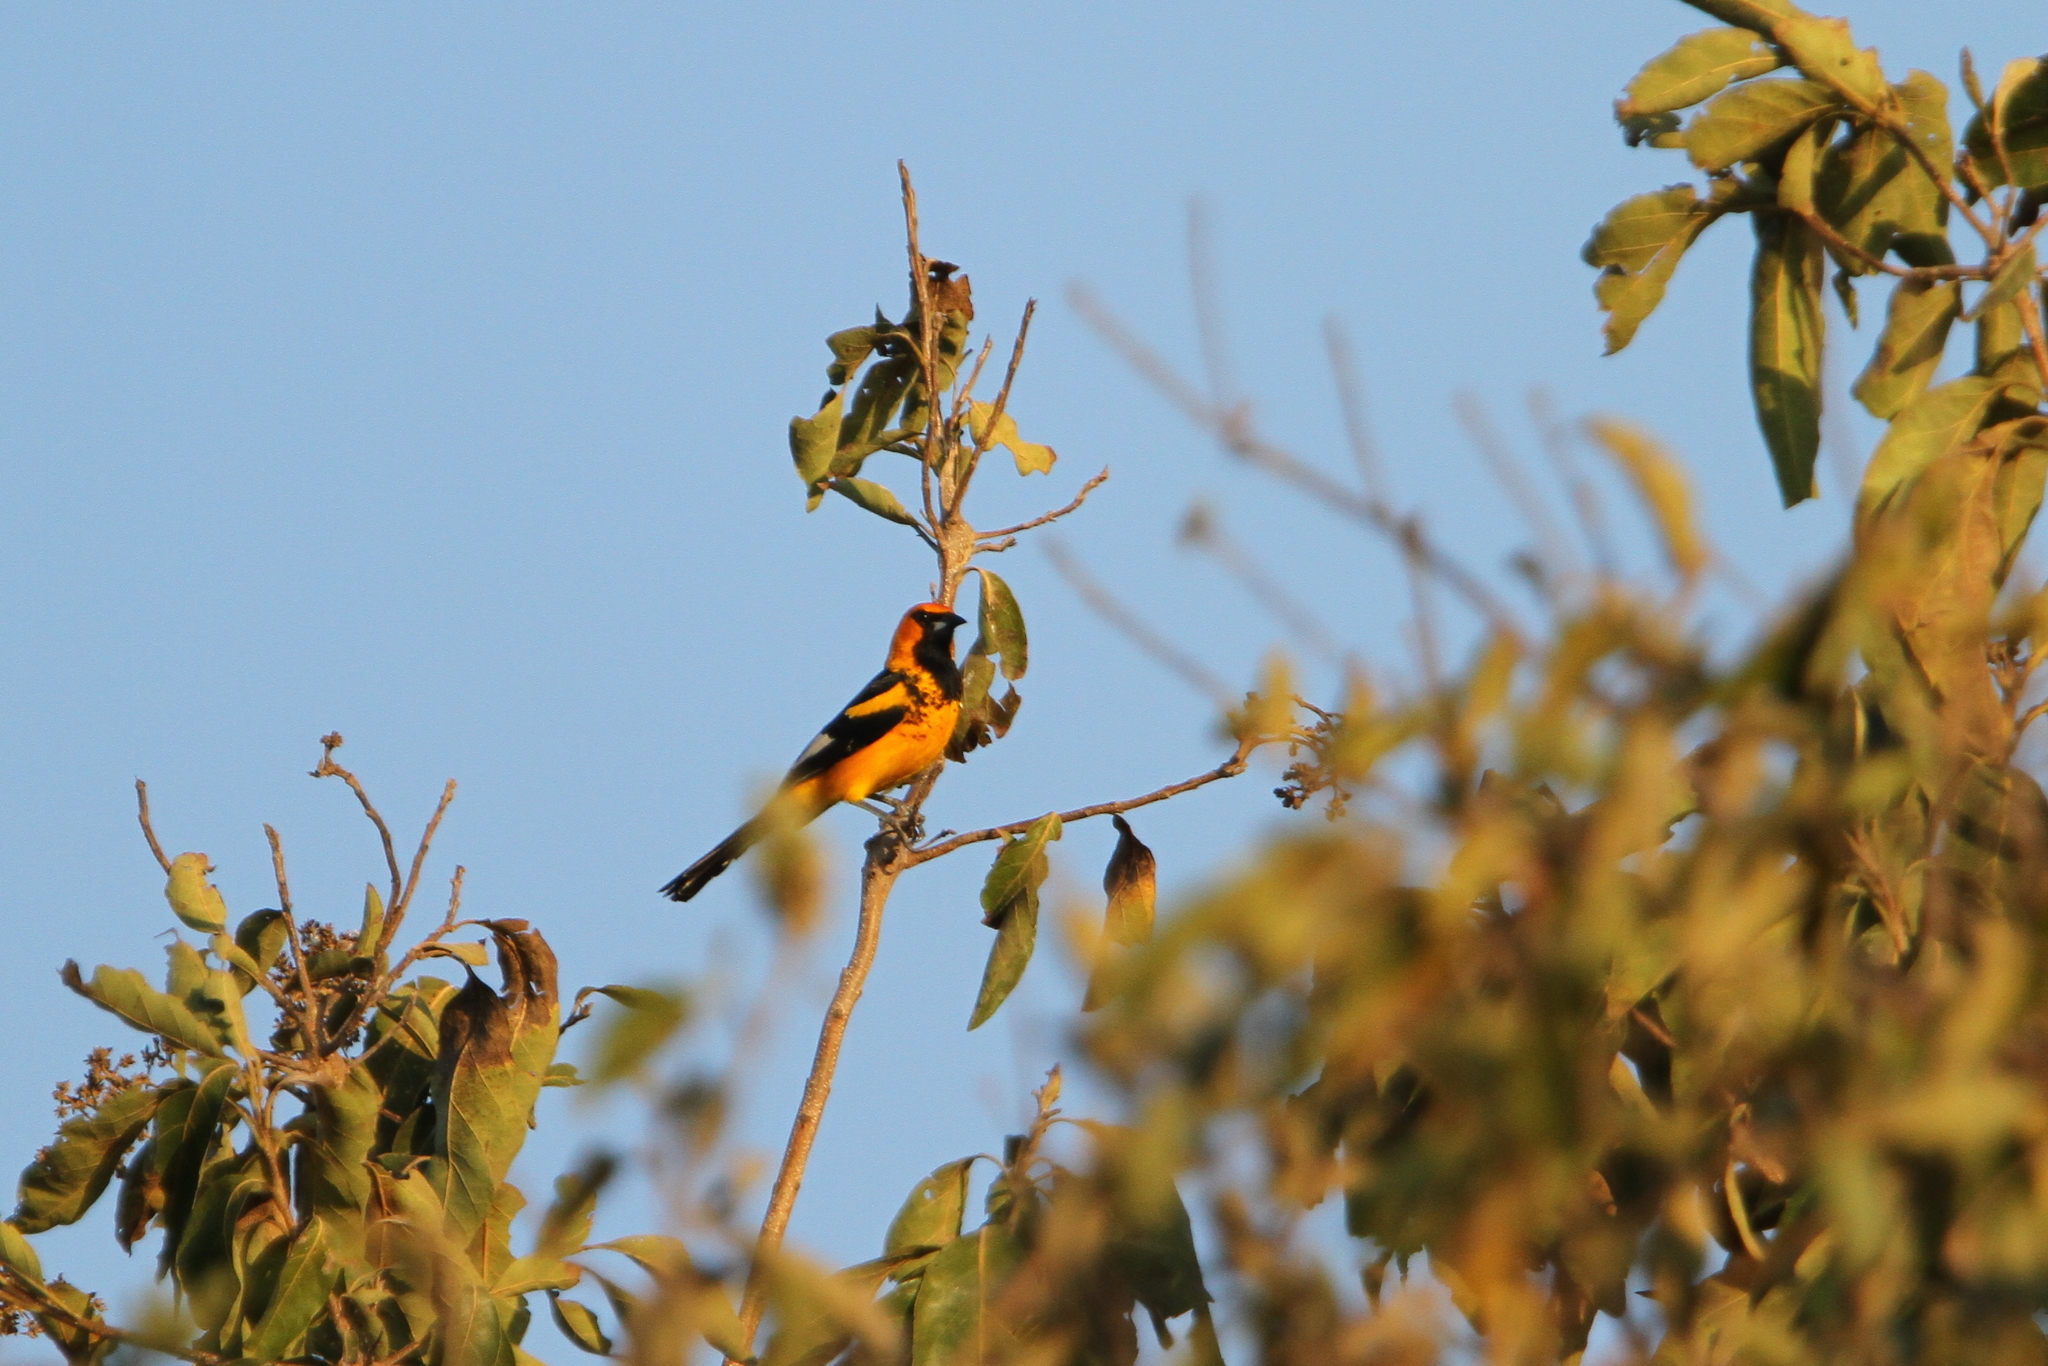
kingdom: Animalia
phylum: Chordata
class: Aves
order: Passeriformes
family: Icteridae
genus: Icterus
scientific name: Icterus pectoralis
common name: Spot-breasted oriole
